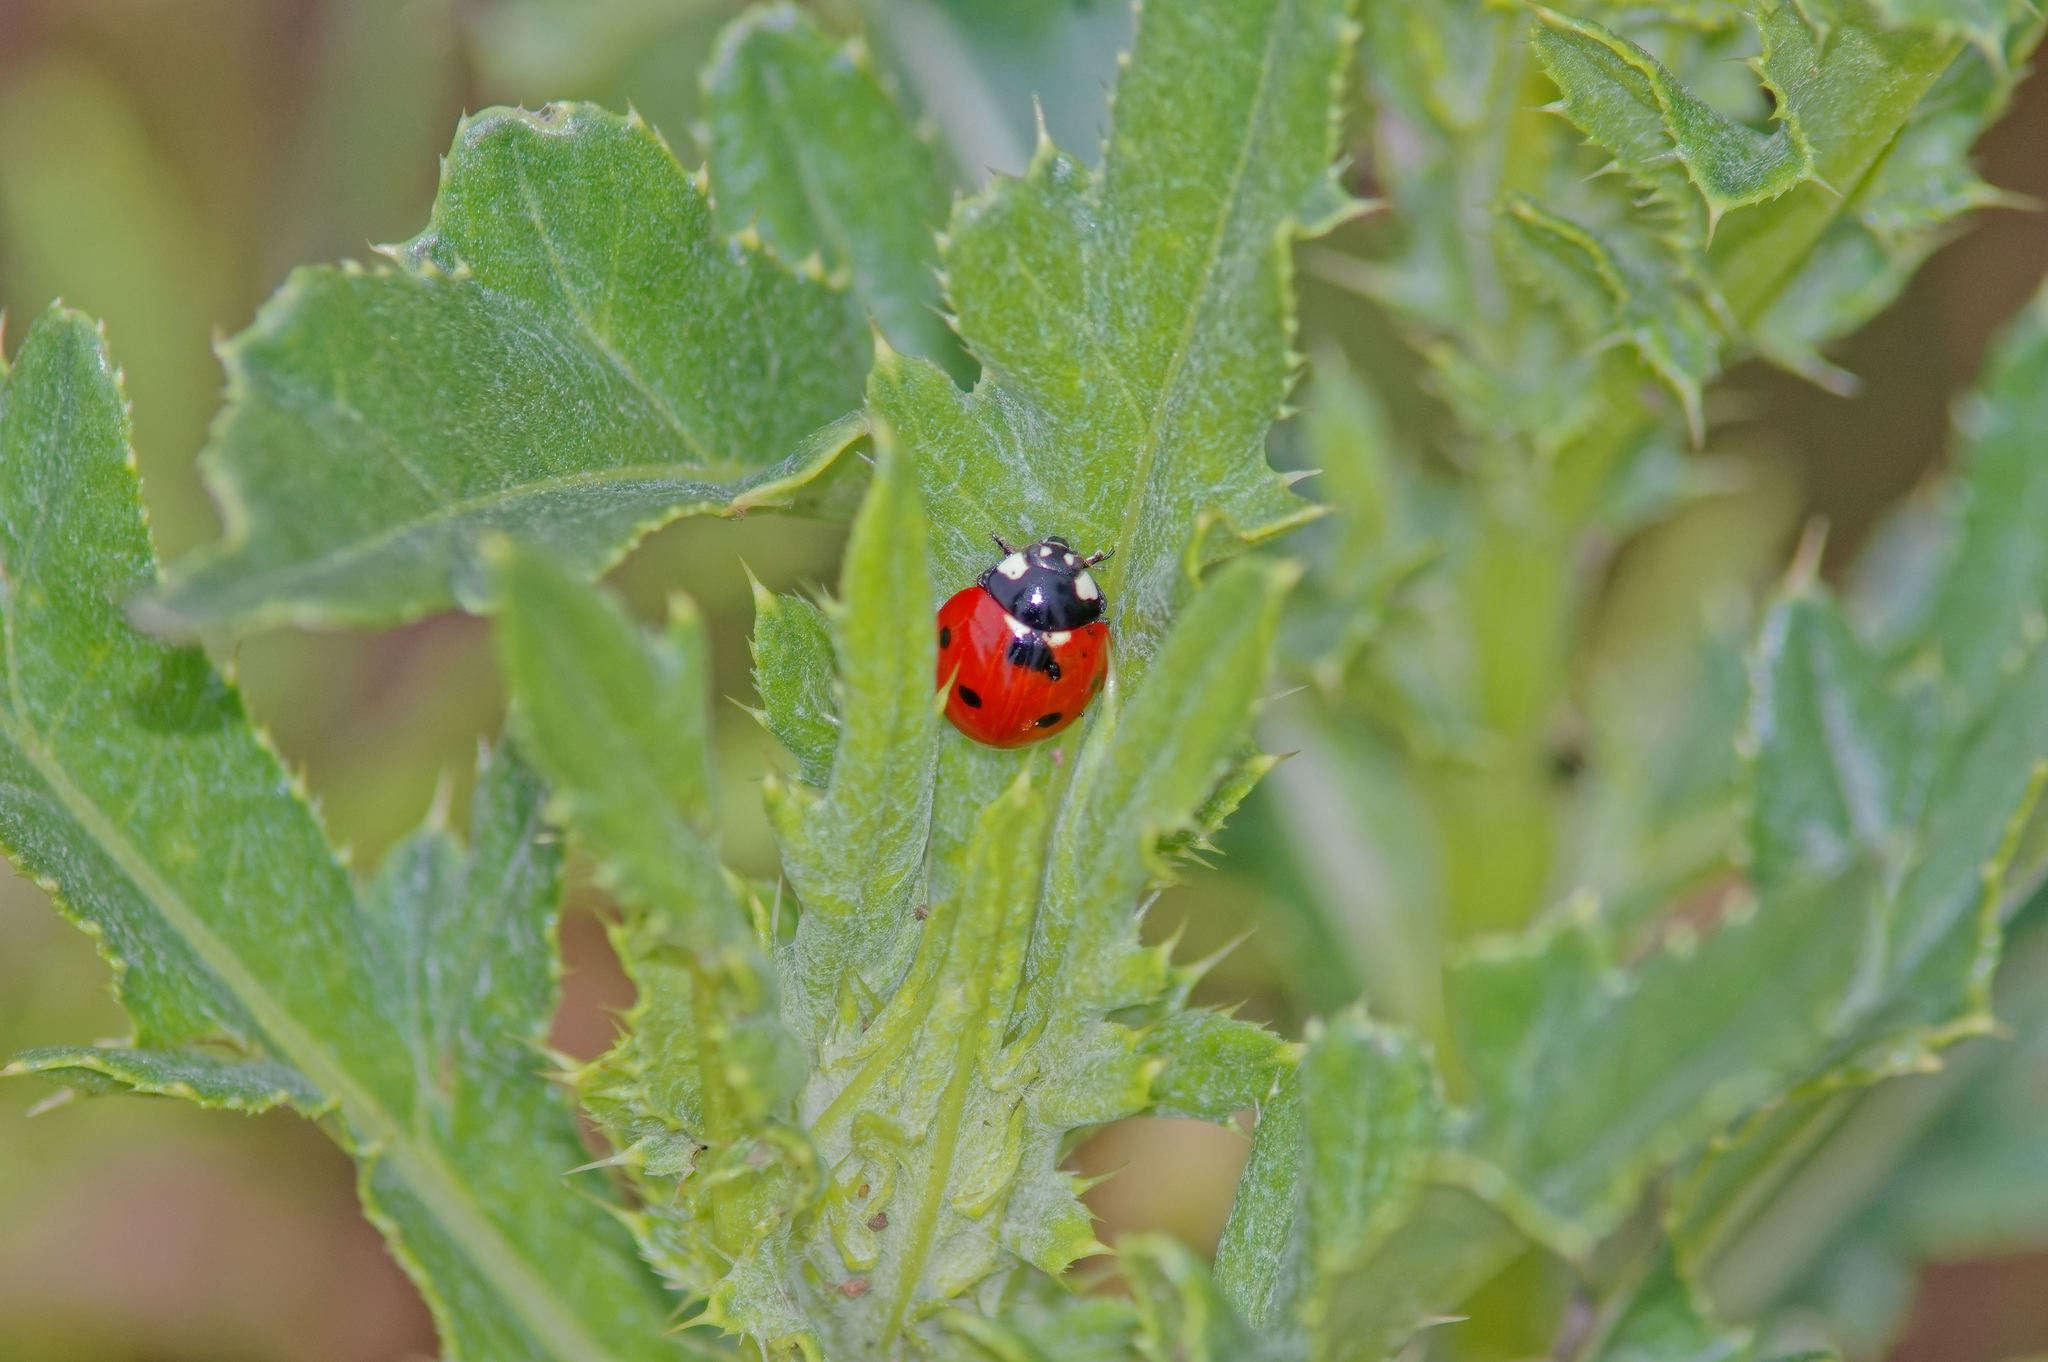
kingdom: Animalia
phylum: Arthropoda
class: Insecta
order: Coleoptera
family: Coccinellidae
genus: Coccinella
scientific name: Coccinella septempunctata
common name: Sevenspotted lady beetle
